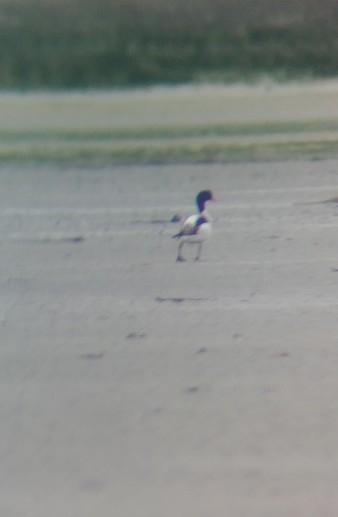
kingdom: Animalia
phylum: Chordata
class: Aves
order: Anseriformes
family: Anatidae
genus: Tadorna
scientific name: Tadorna tadorna
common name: Common shelduck
